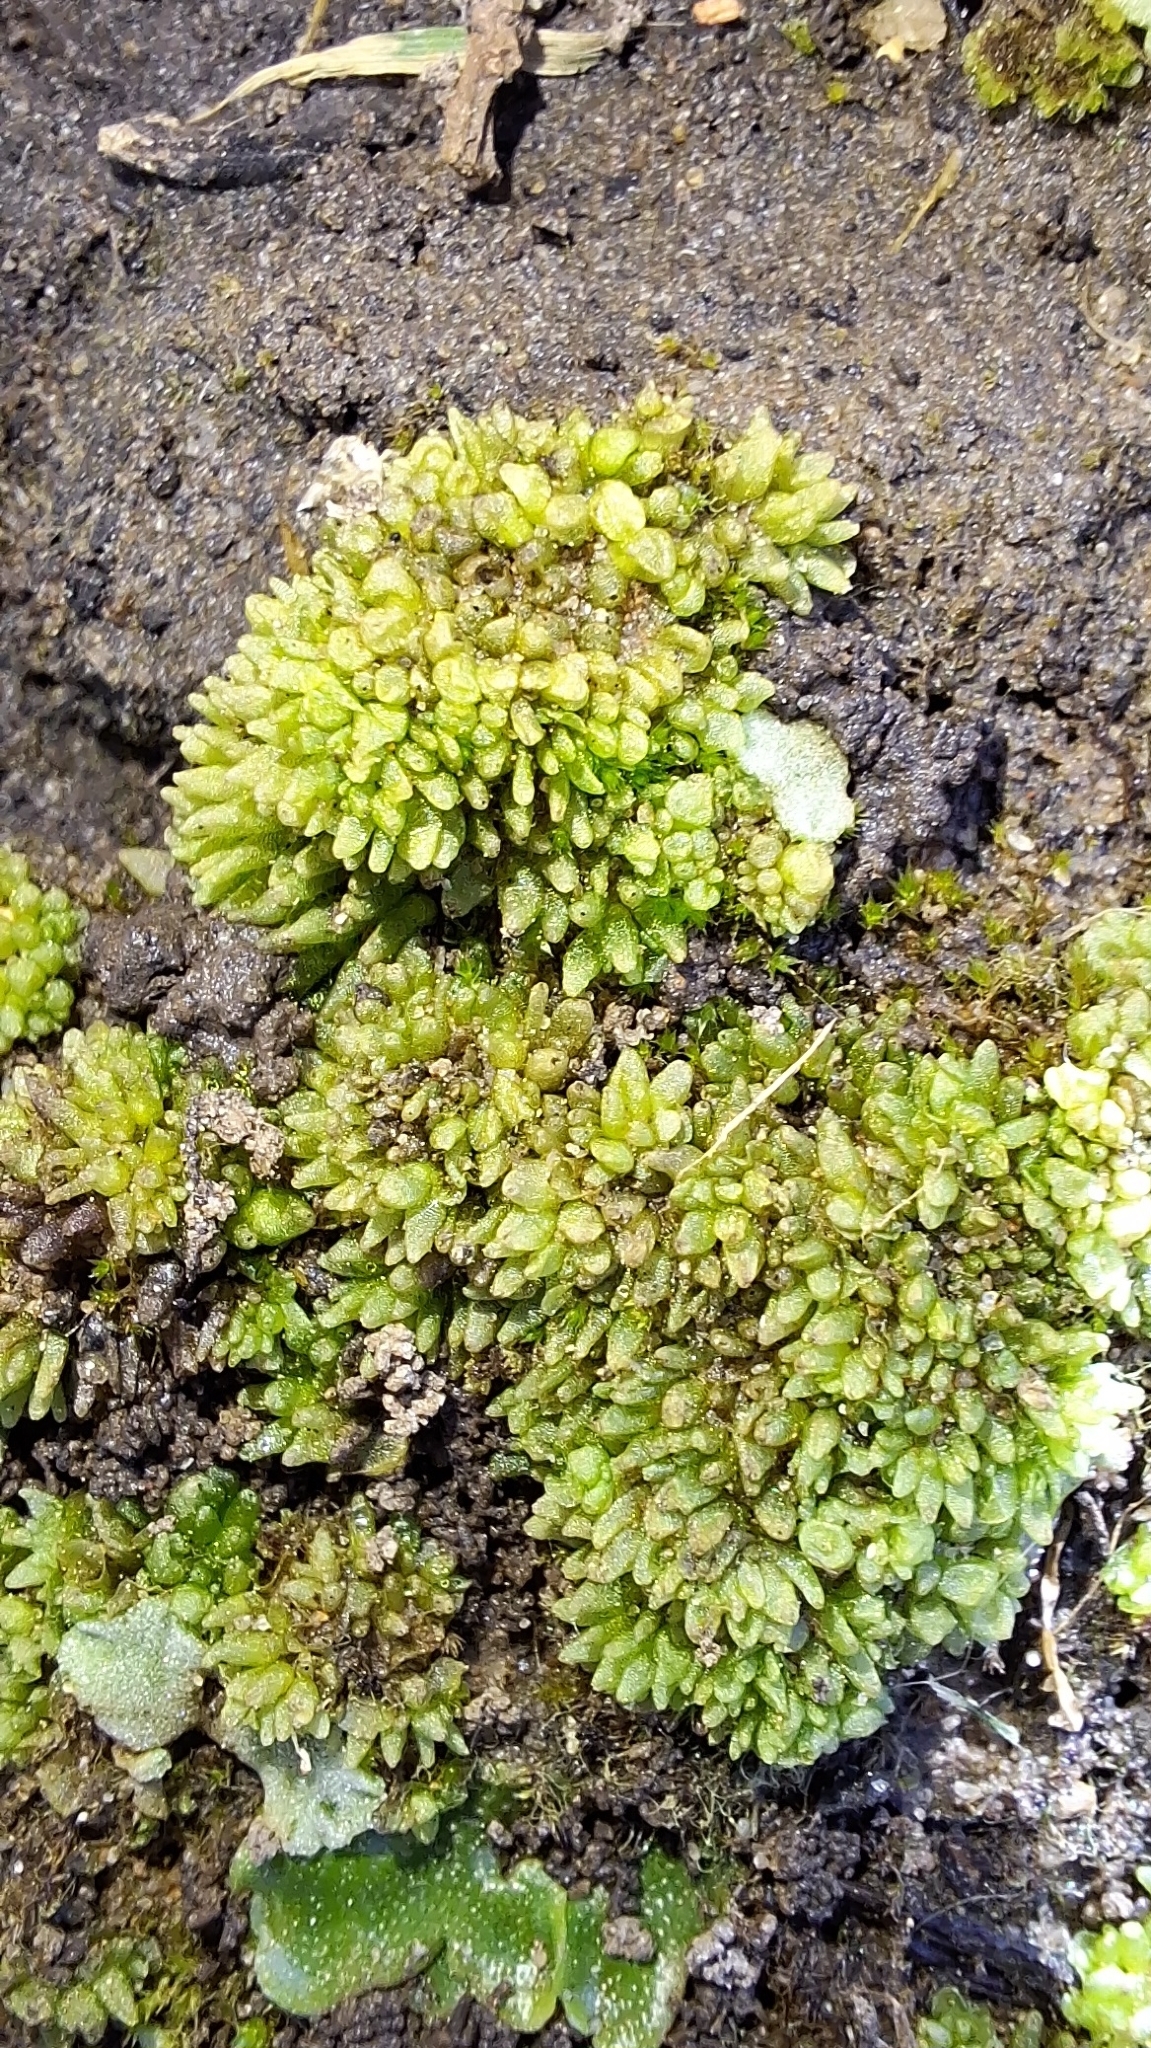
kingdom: Plantae
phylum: Marchantiophyta
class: Marchantiopsida
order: Sphaerocarpales
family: Sphaerocarpaceae
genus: Sphaerocarpos
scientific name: Sphaerocarpos texanus
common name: Texas balloonwort
